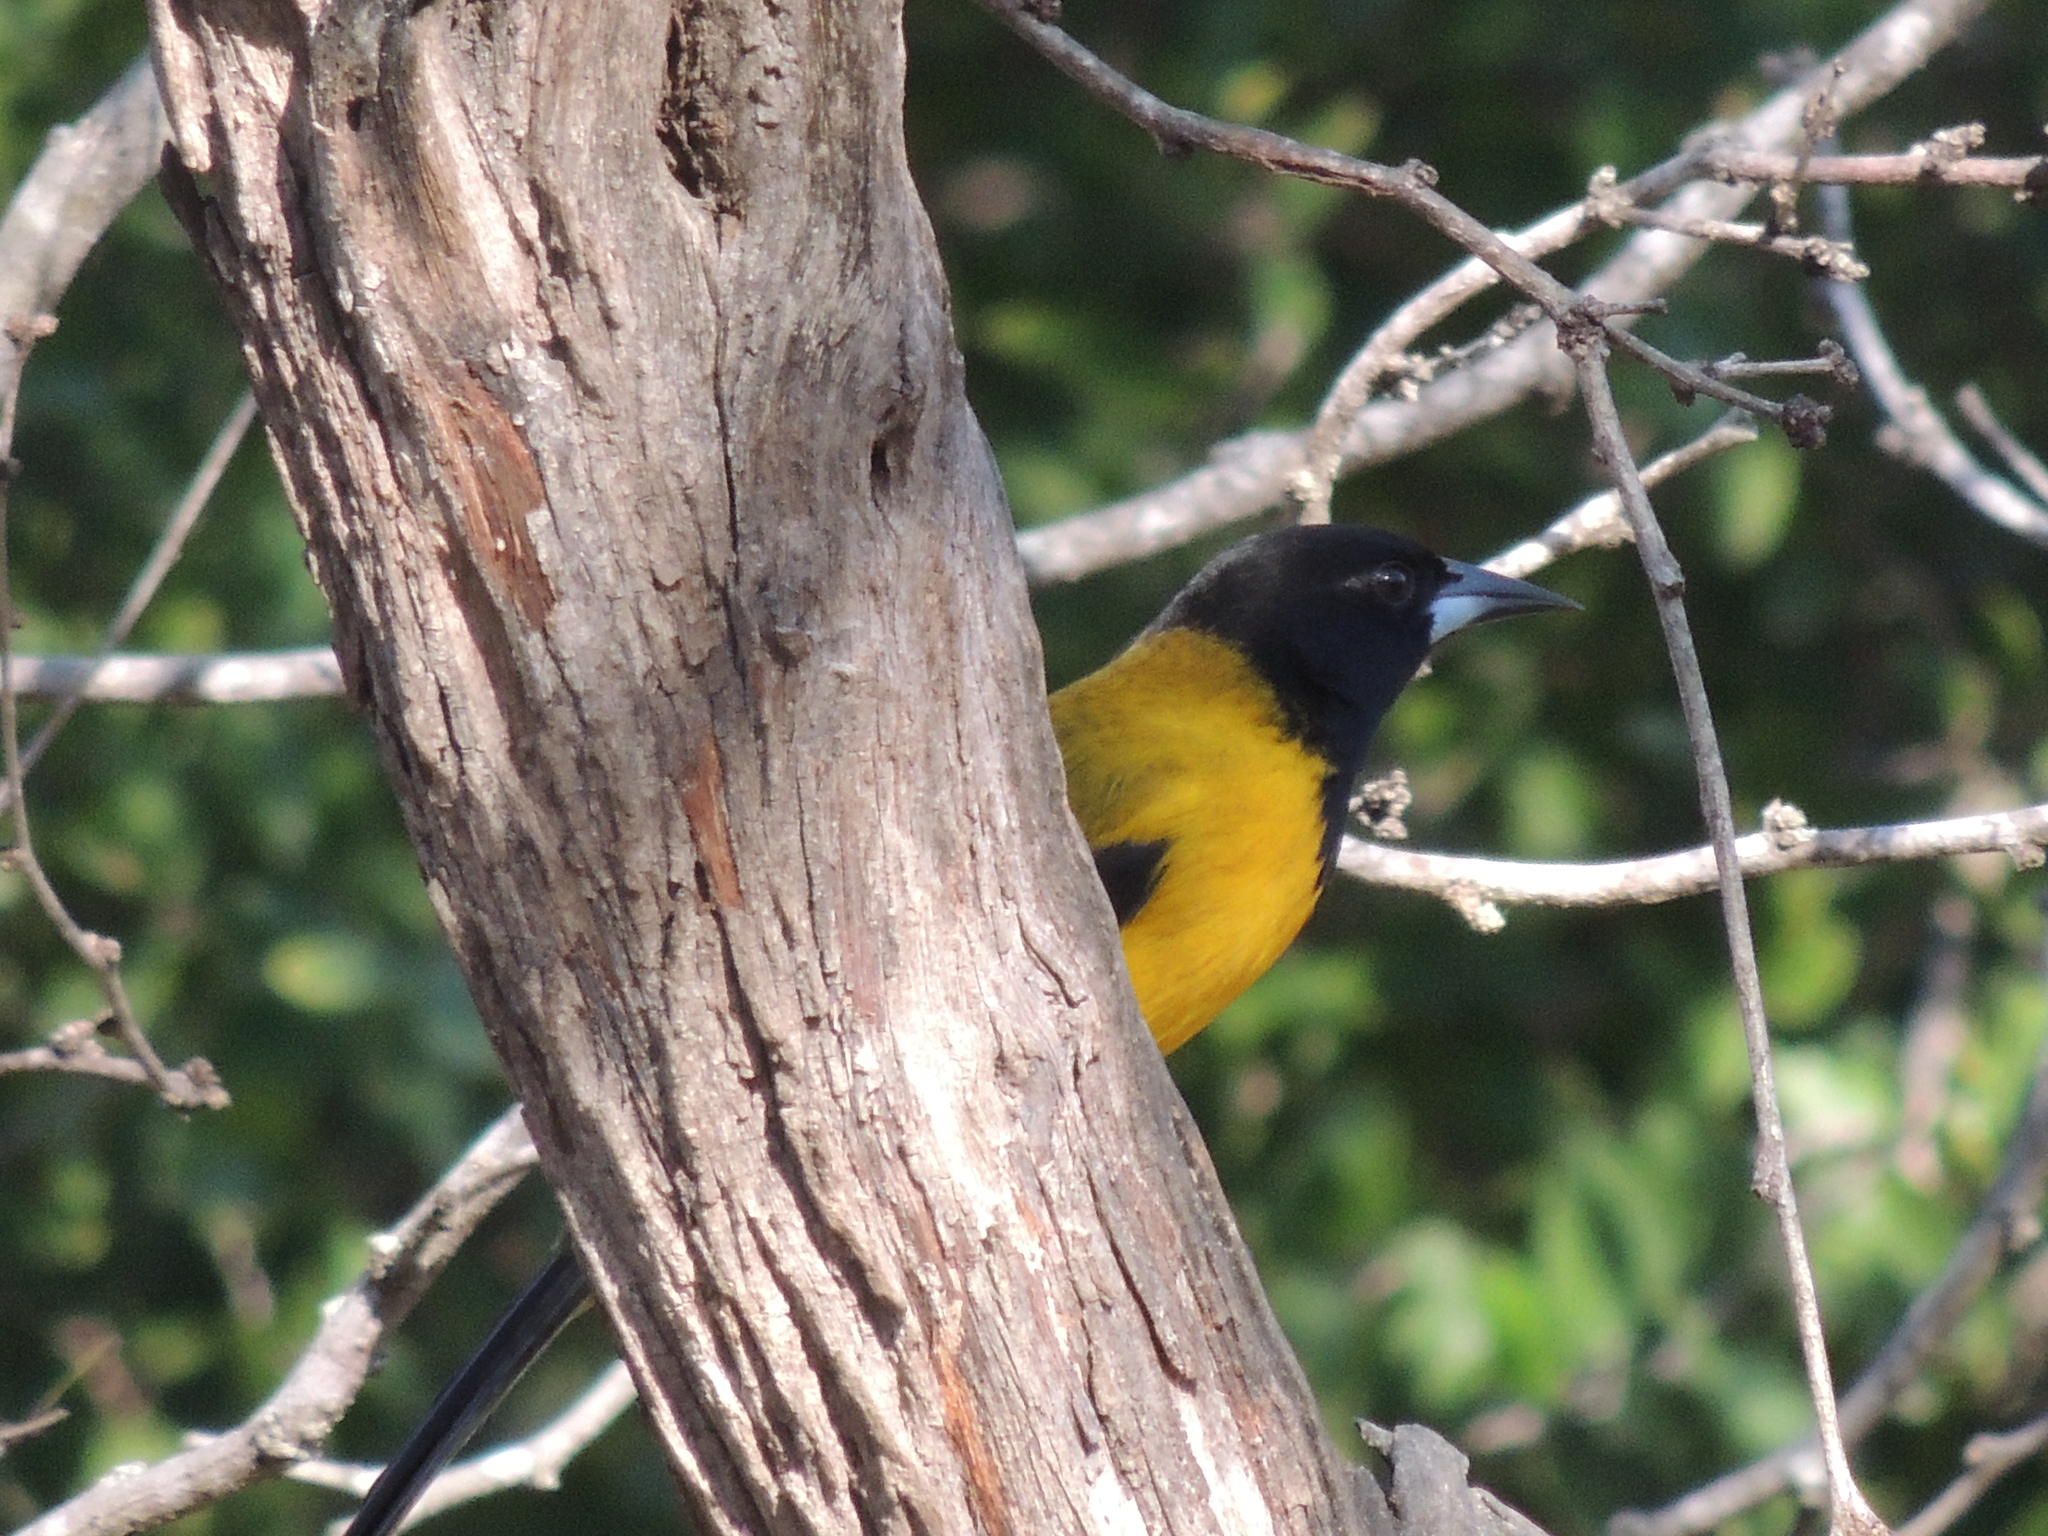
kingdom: Animalia
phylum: Chordata
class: Aves
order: Passeriformes
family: Icteridae
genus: Icterus
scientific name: Icterus graduacauda
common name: Audubon's oriole
